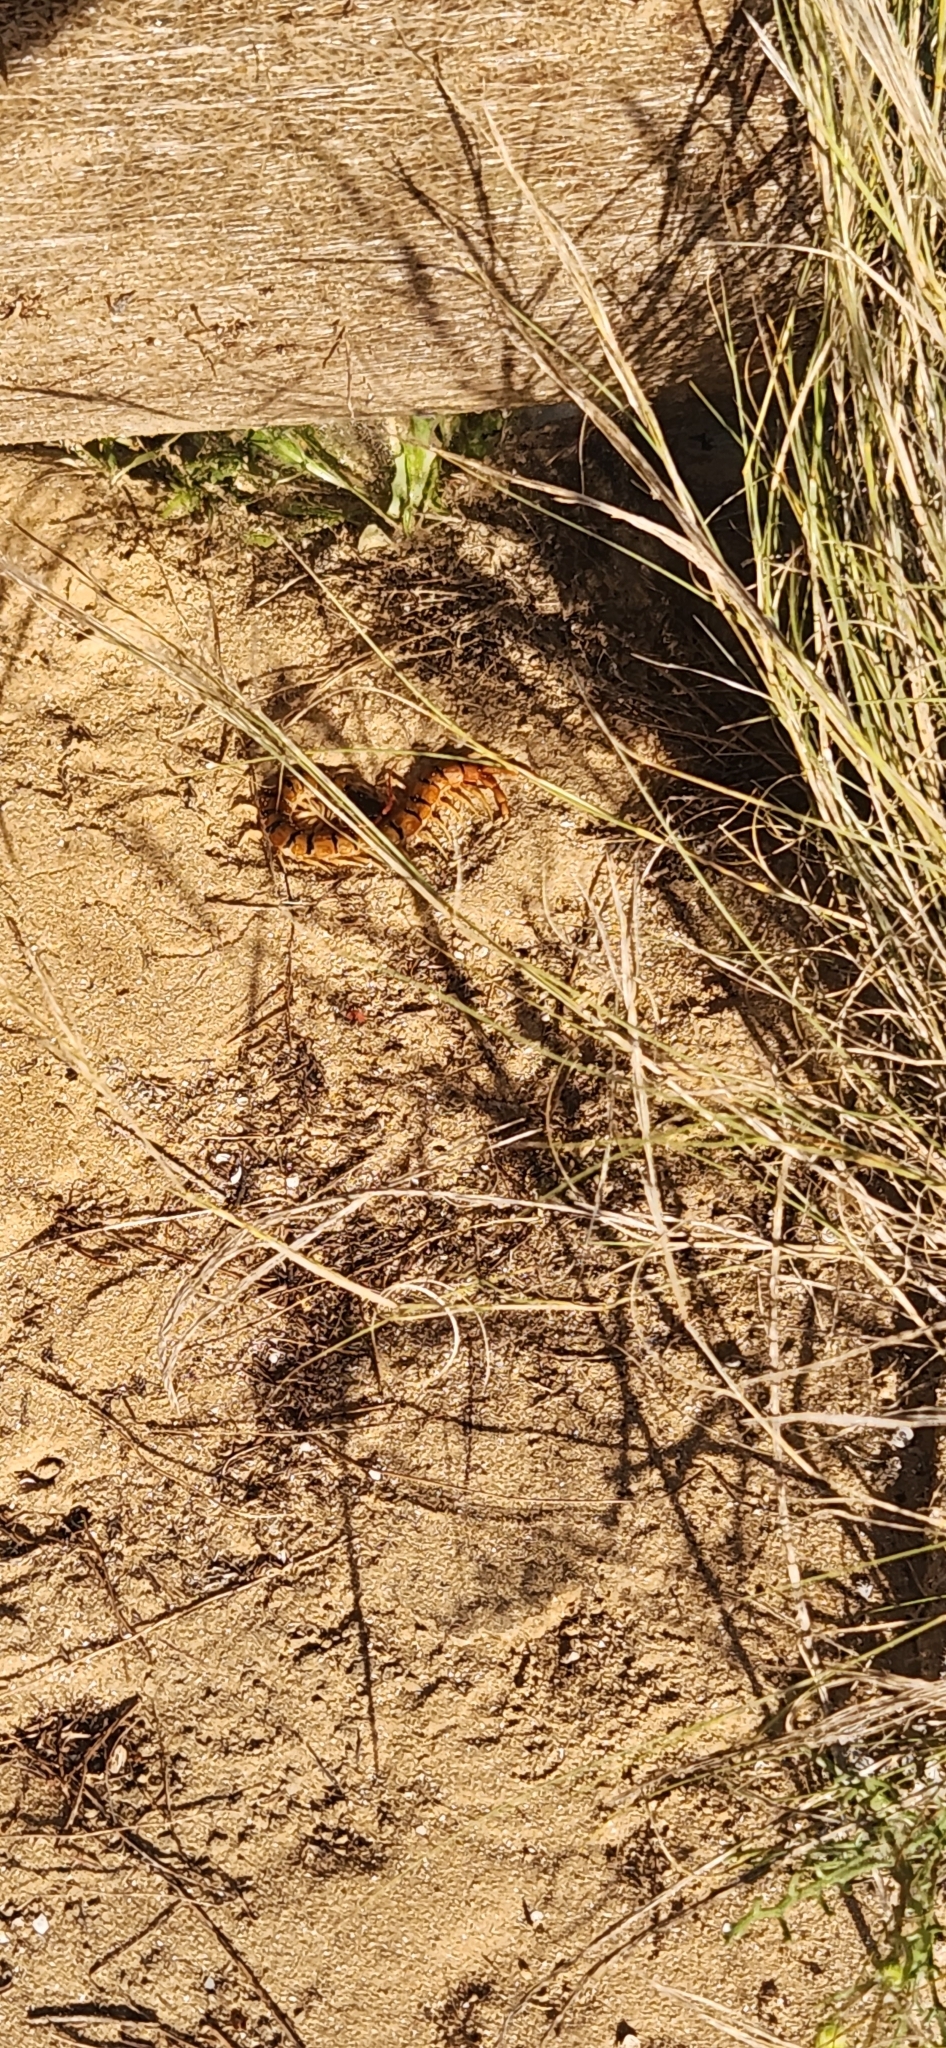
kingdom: Animalia
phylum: Arthropoda
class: Chilopoda
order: Scolopendromorpha
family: Scolopendridae
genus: Scolopendra
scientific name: Scolopendra cingulata
